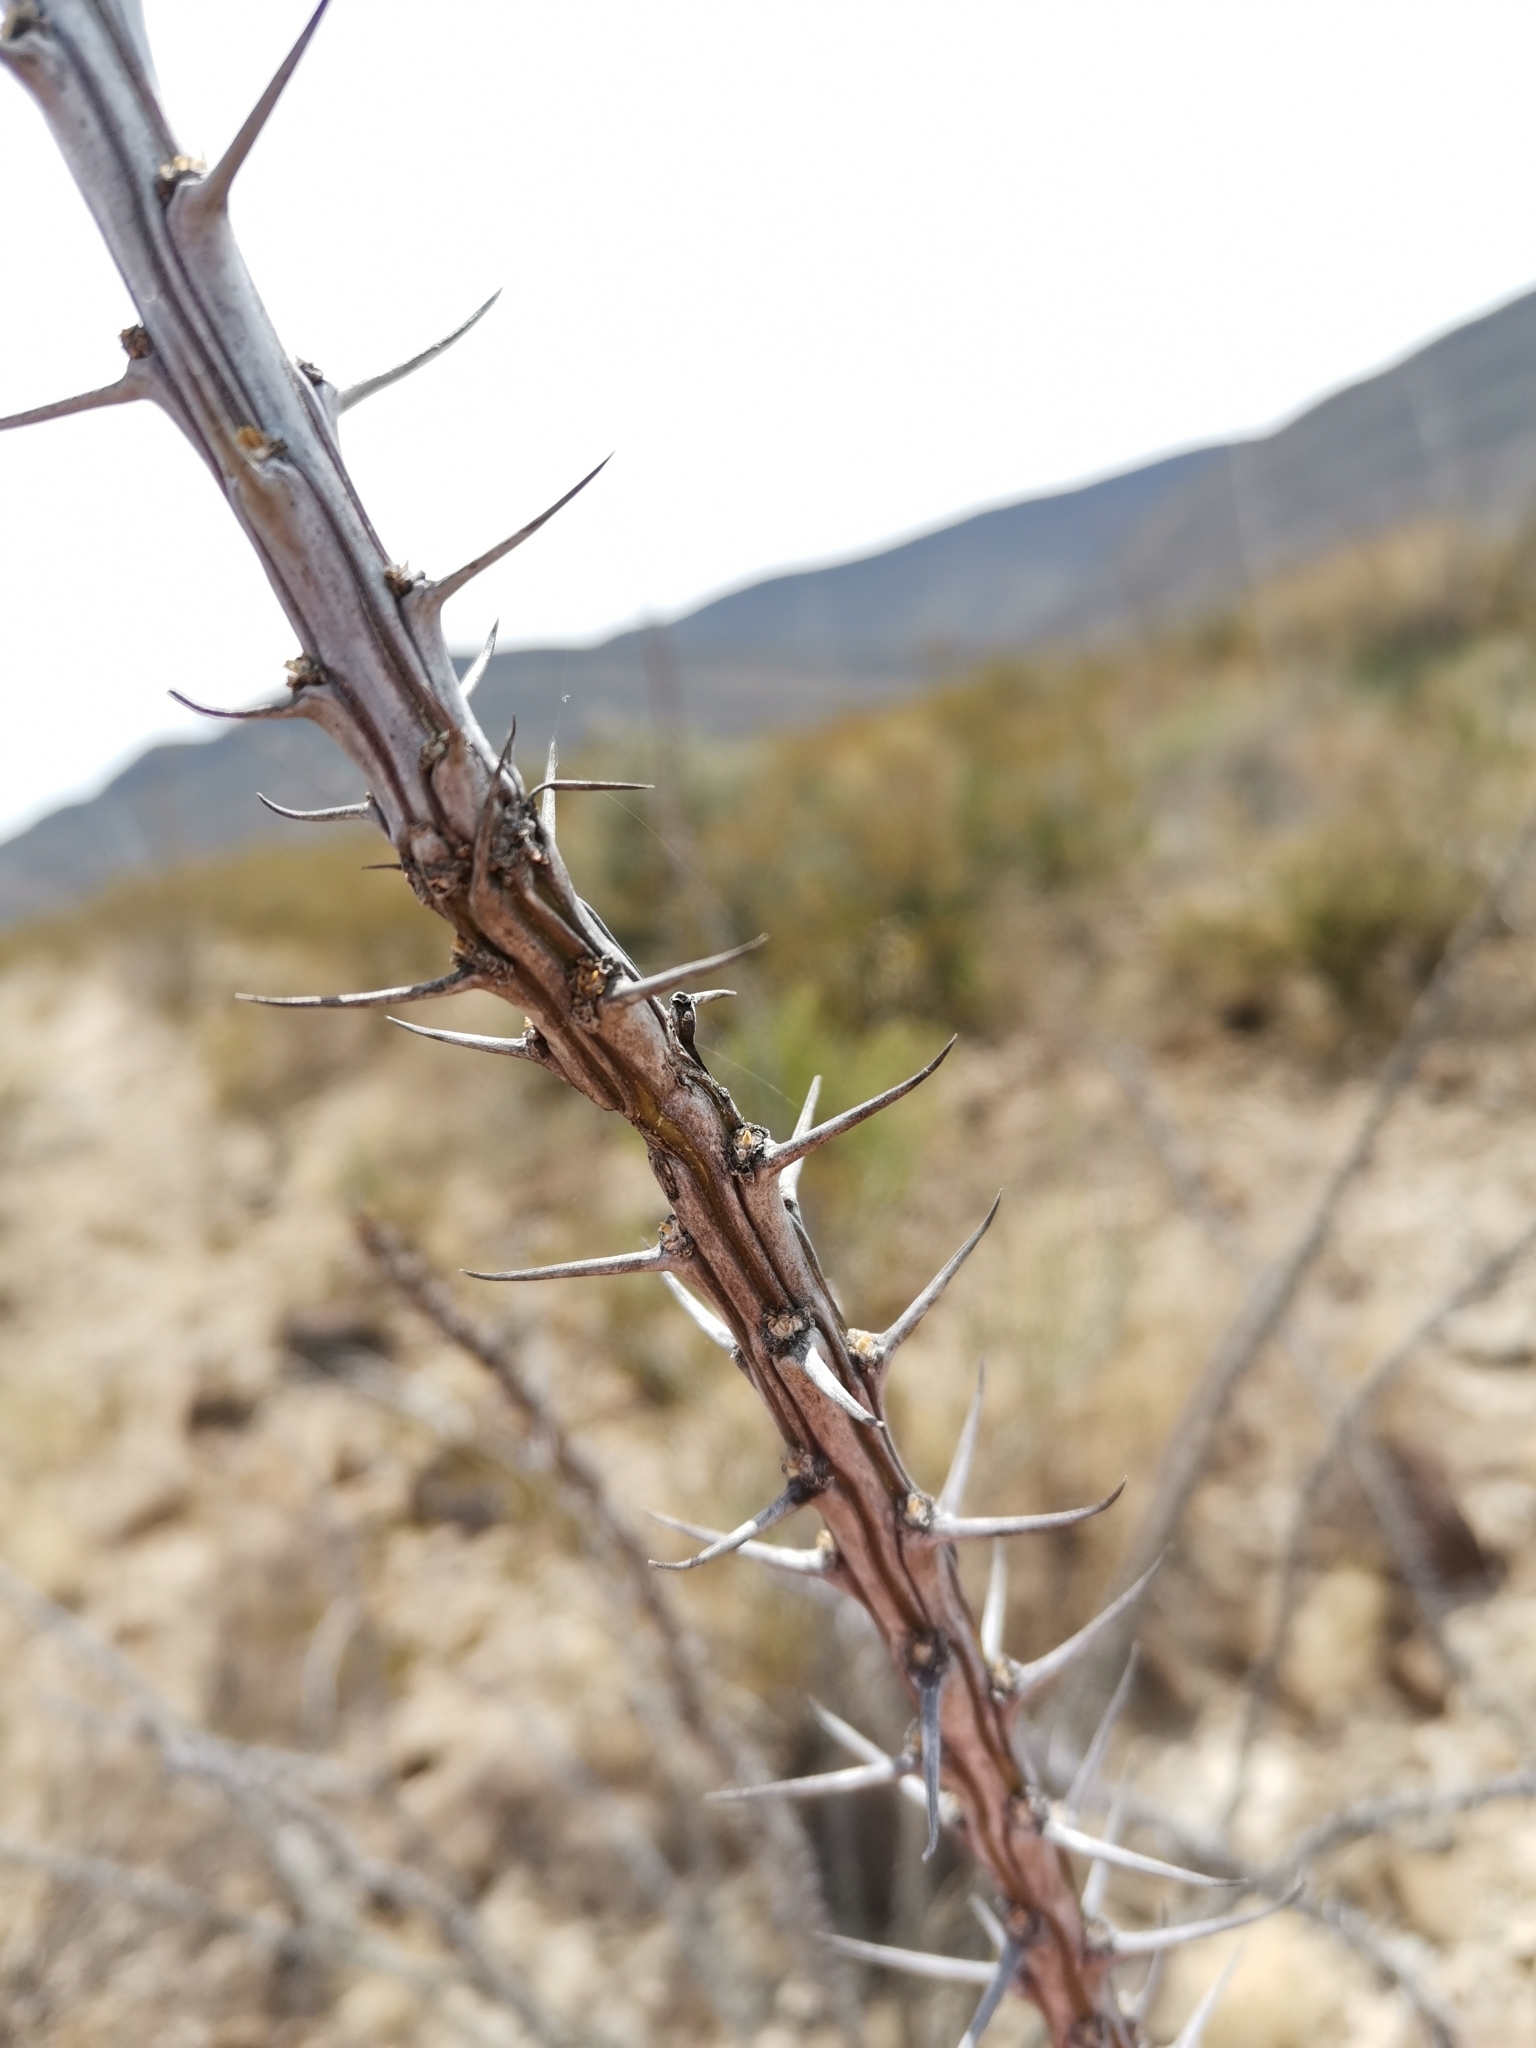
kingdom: Plantae
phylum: Tracheophyta
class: Magnoliopsida
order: Ericales
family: Fouquieriaceae
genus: Fouquieria
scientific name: Fouquieria splendens
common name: Vine-cactus
